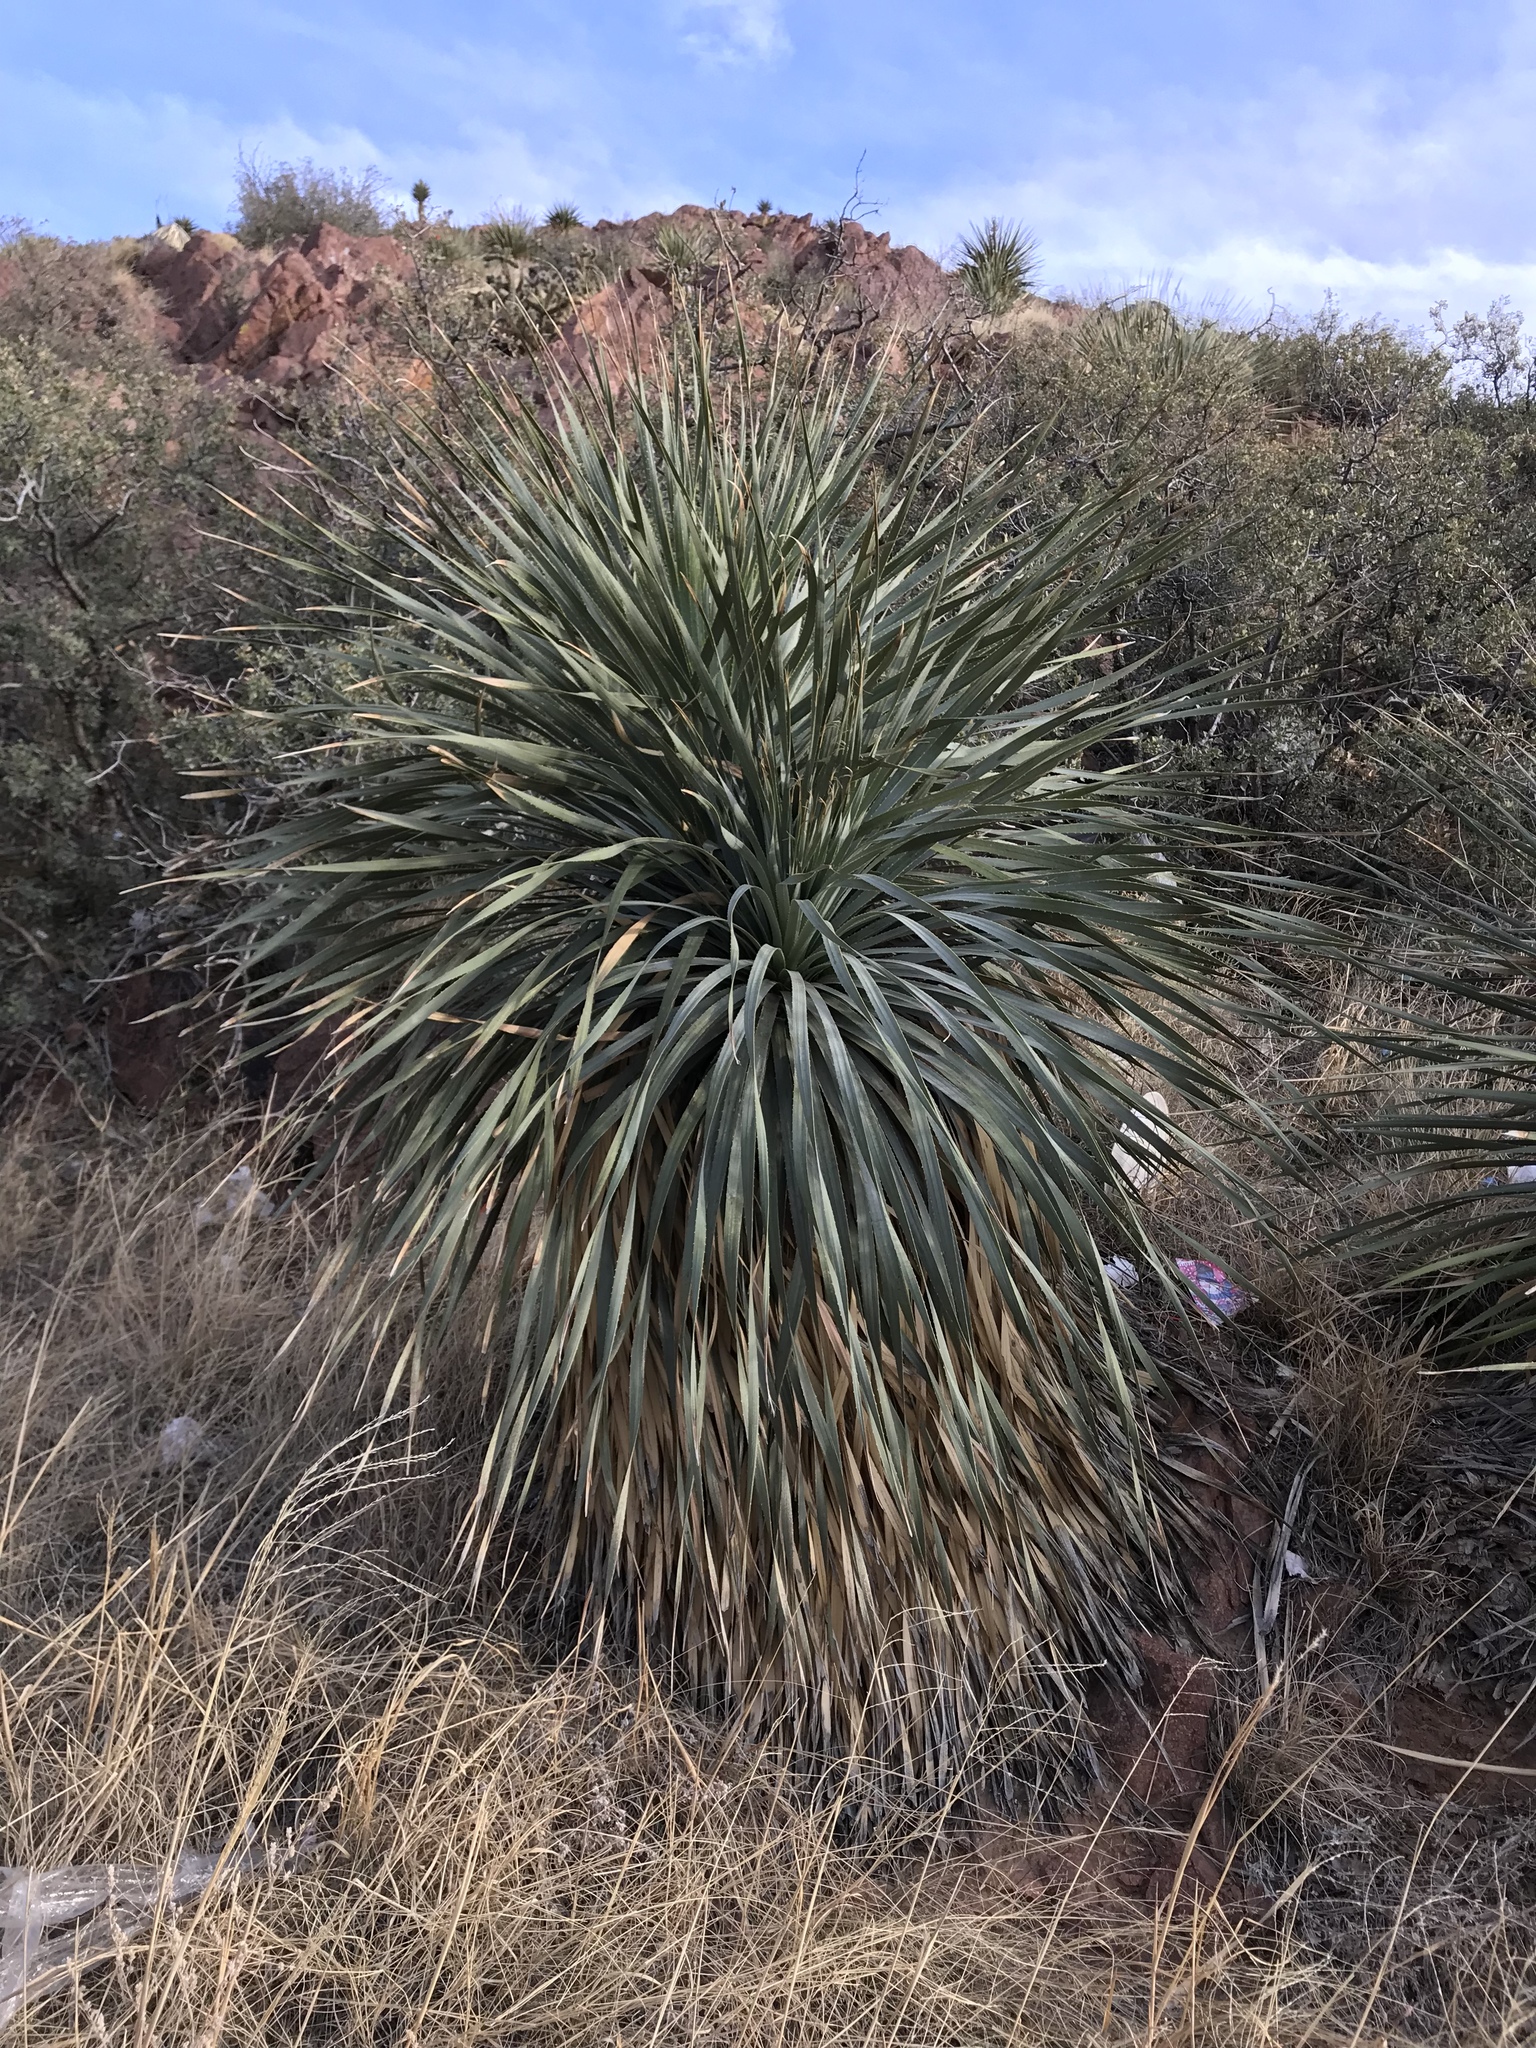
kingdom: Plantae
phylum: Tracheophyta
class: Liliopsida
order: Asparagales
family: Asparagaceae
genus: Dasylirion
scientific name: Dasylirion wheeleri
